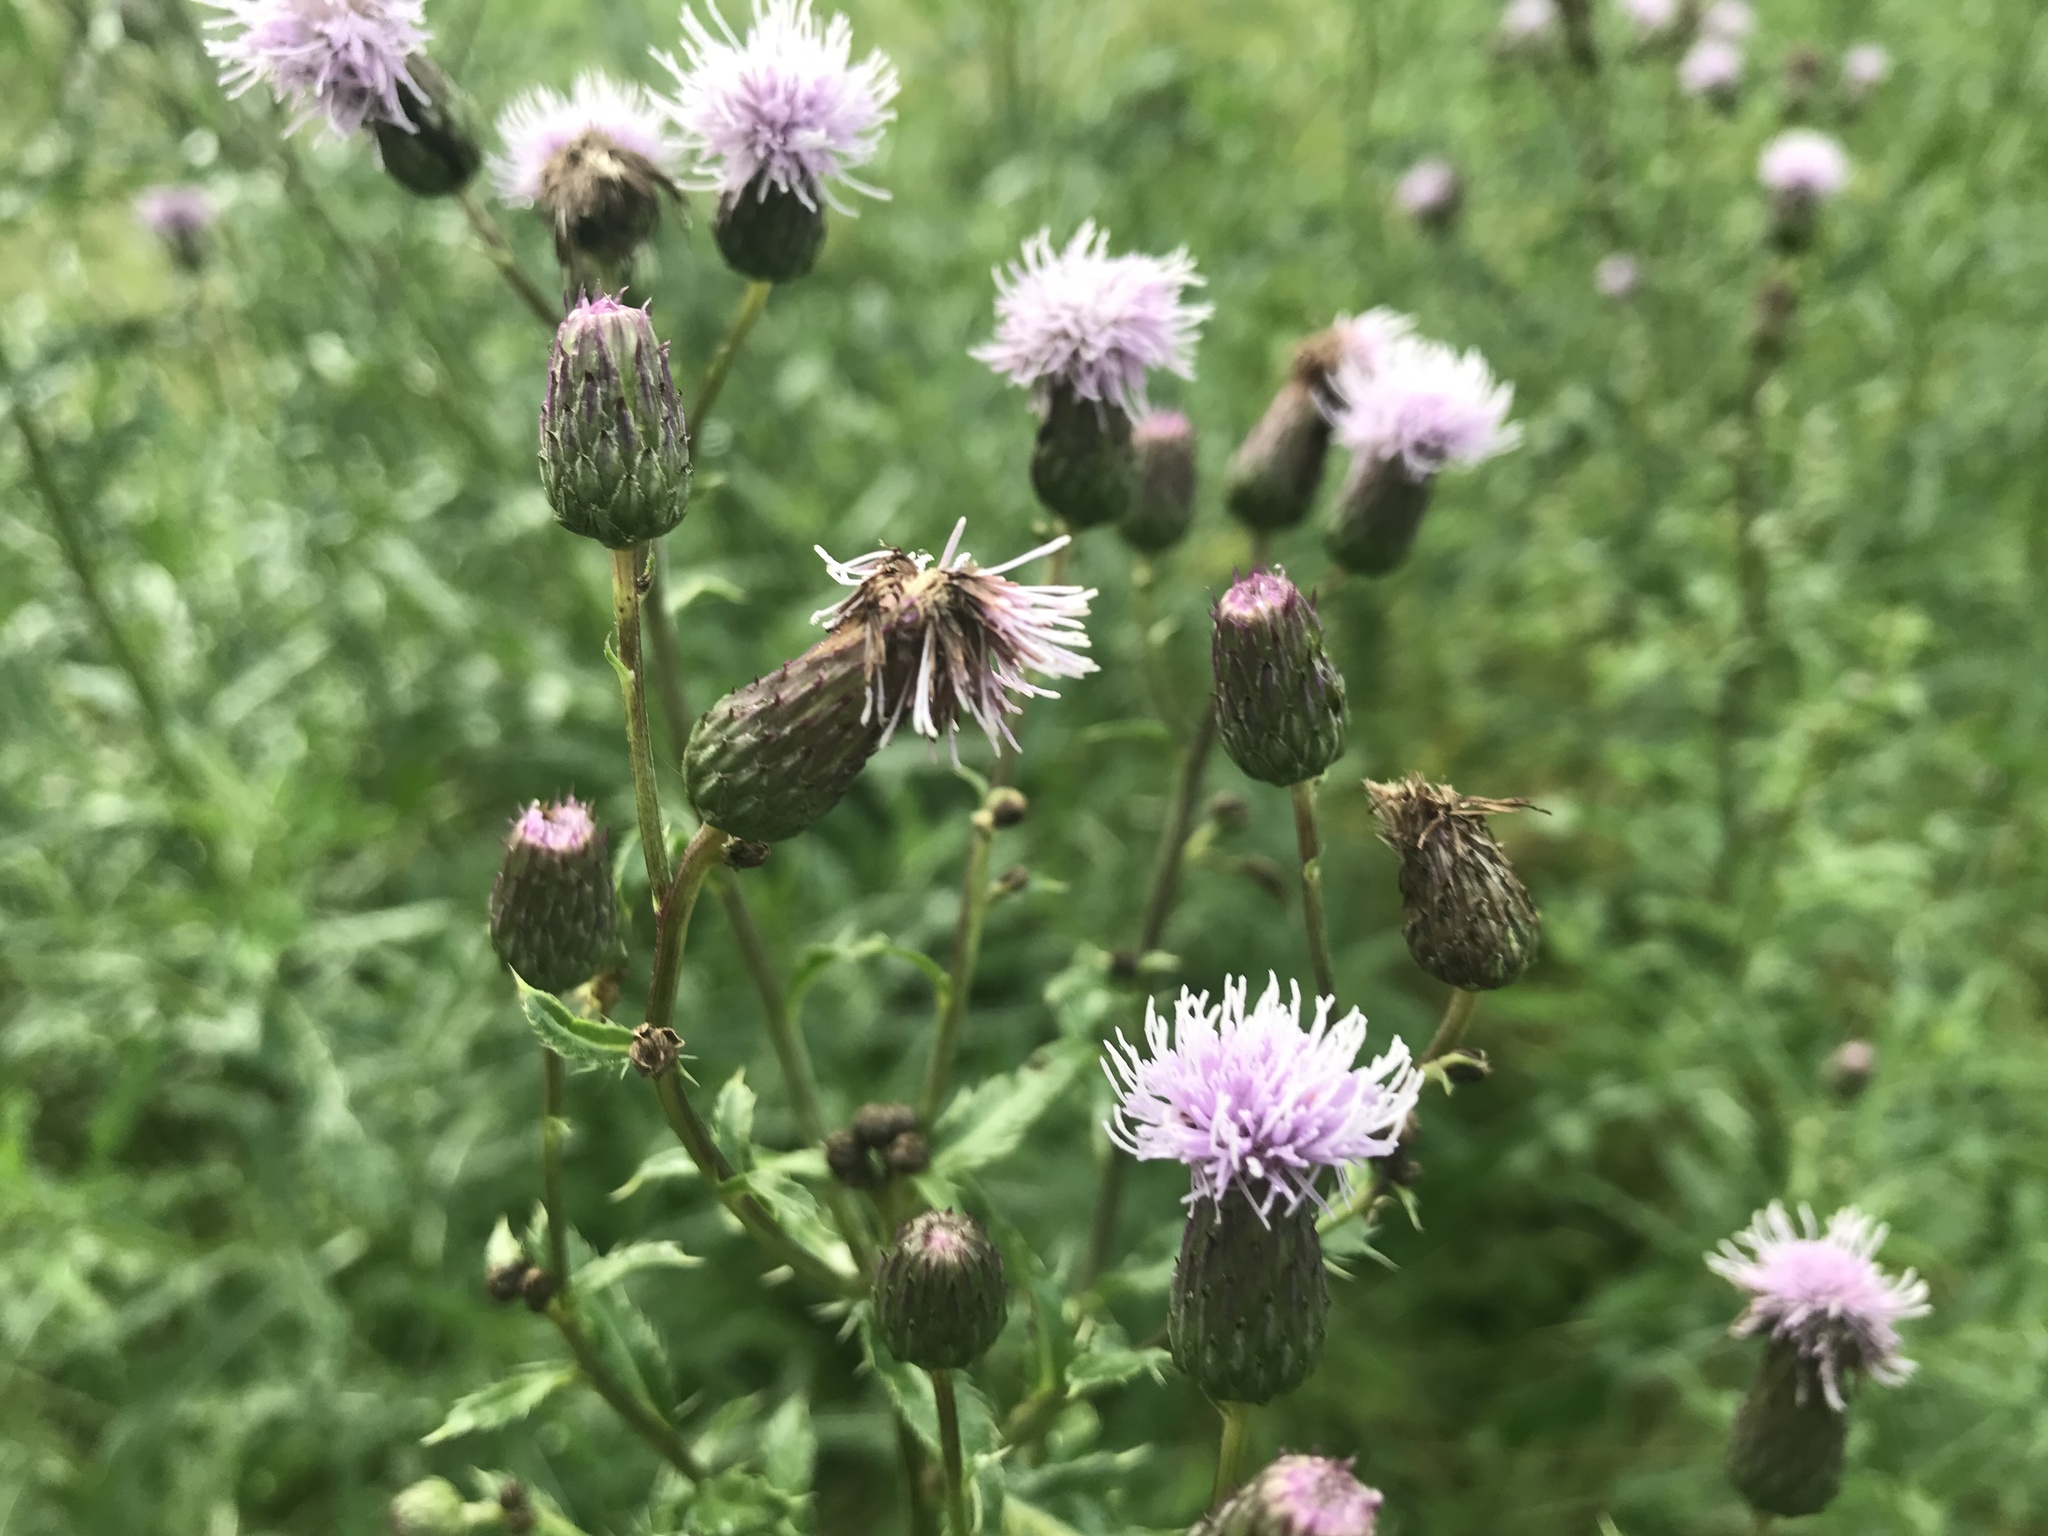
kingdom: Plantae
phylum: Tracheophyta
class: Magnoliopsida
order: Asterales
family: Asteraceae
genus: Cirsium
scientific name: Cirsium arvense
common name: Creeping thistle
